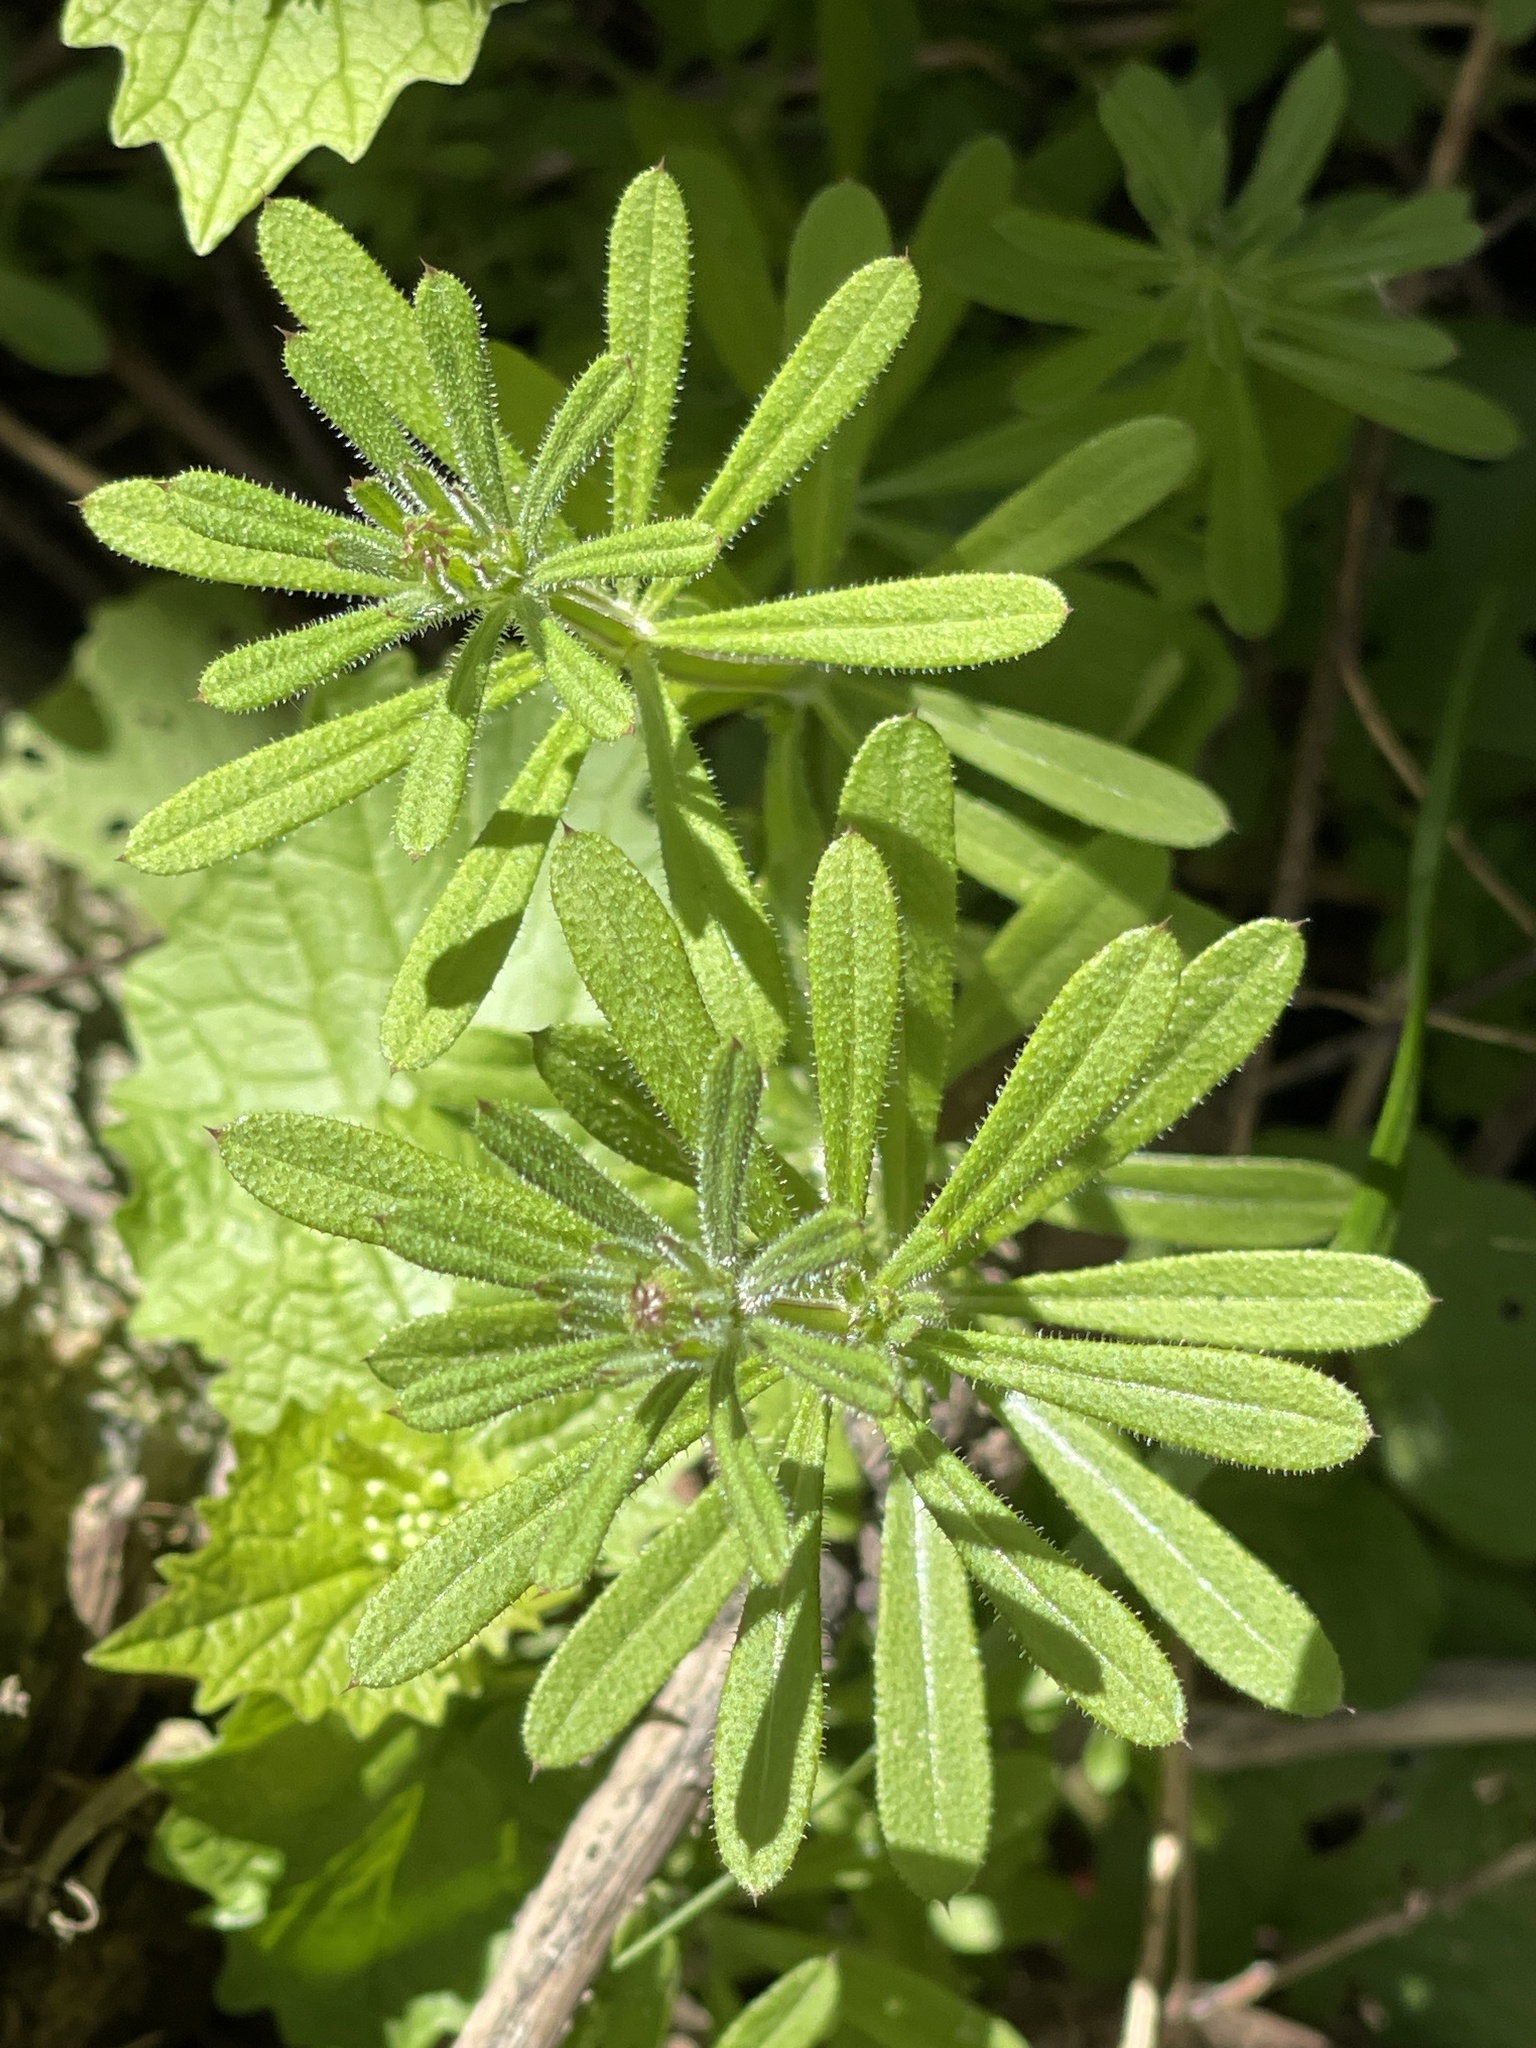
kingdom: Plantae
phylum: Tracheophyta
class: Magnoliopsida
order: Gentianales
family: Rubiaceae
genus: Galium
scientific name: Galium aparine
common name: Cleavers
